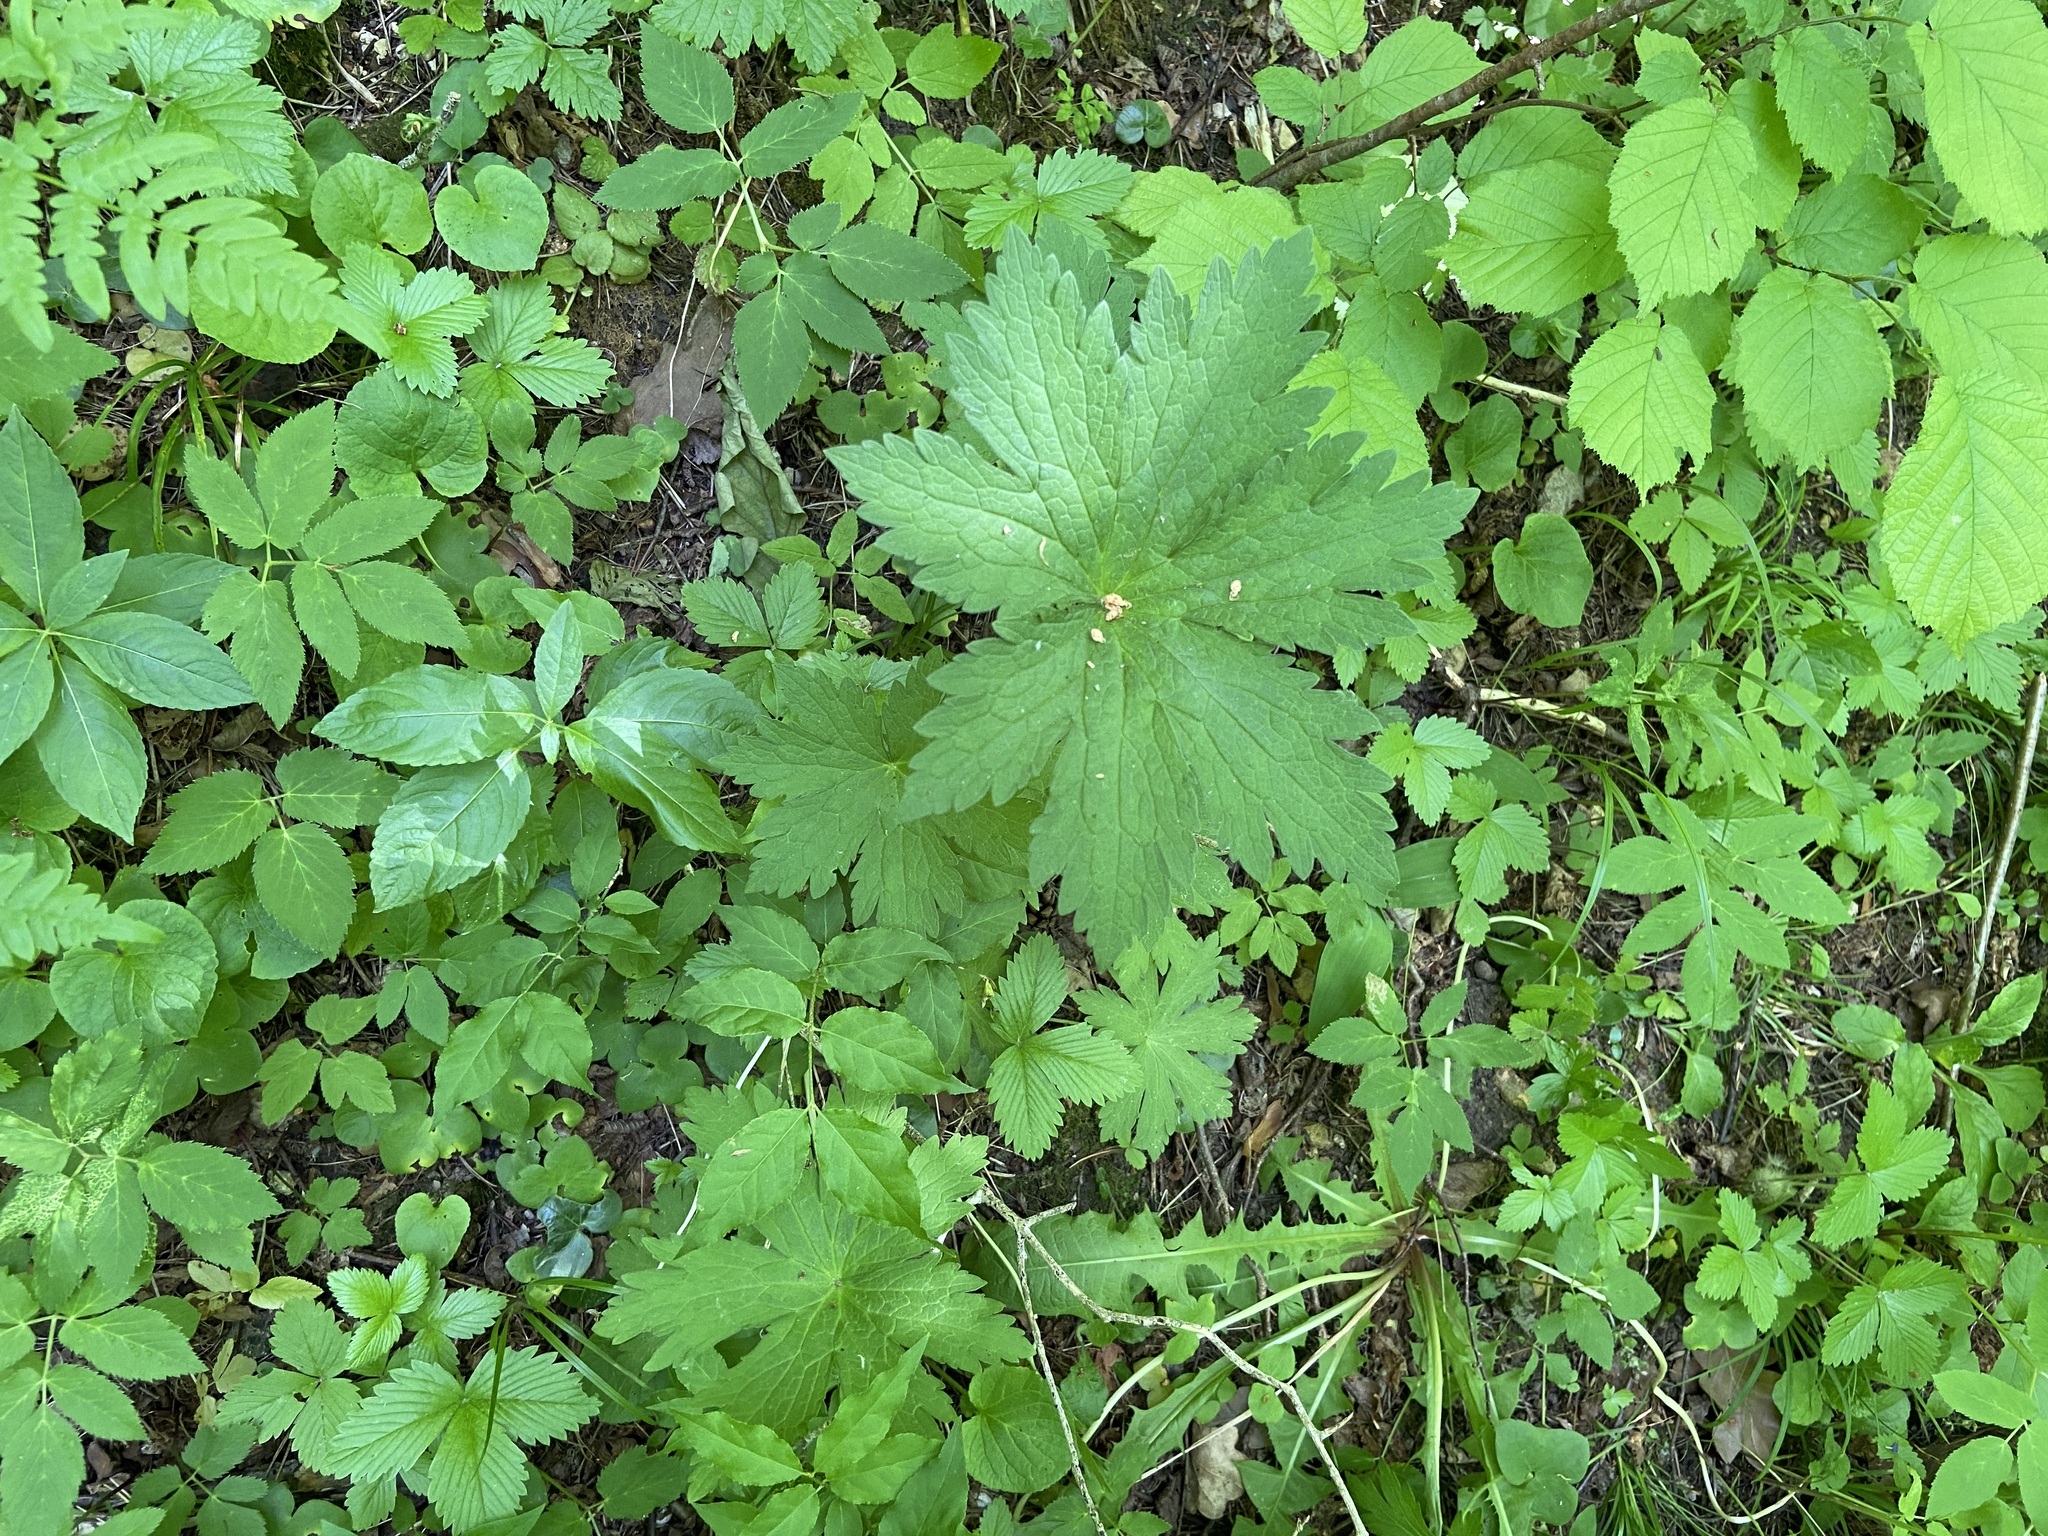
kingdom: Plantae
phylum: Tracheophyta
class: Magnoliopsida
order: Geraniales
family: Geraniaceae
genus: Geranium
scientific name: Geranium sylvaticum
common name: Wood crane's-bill
